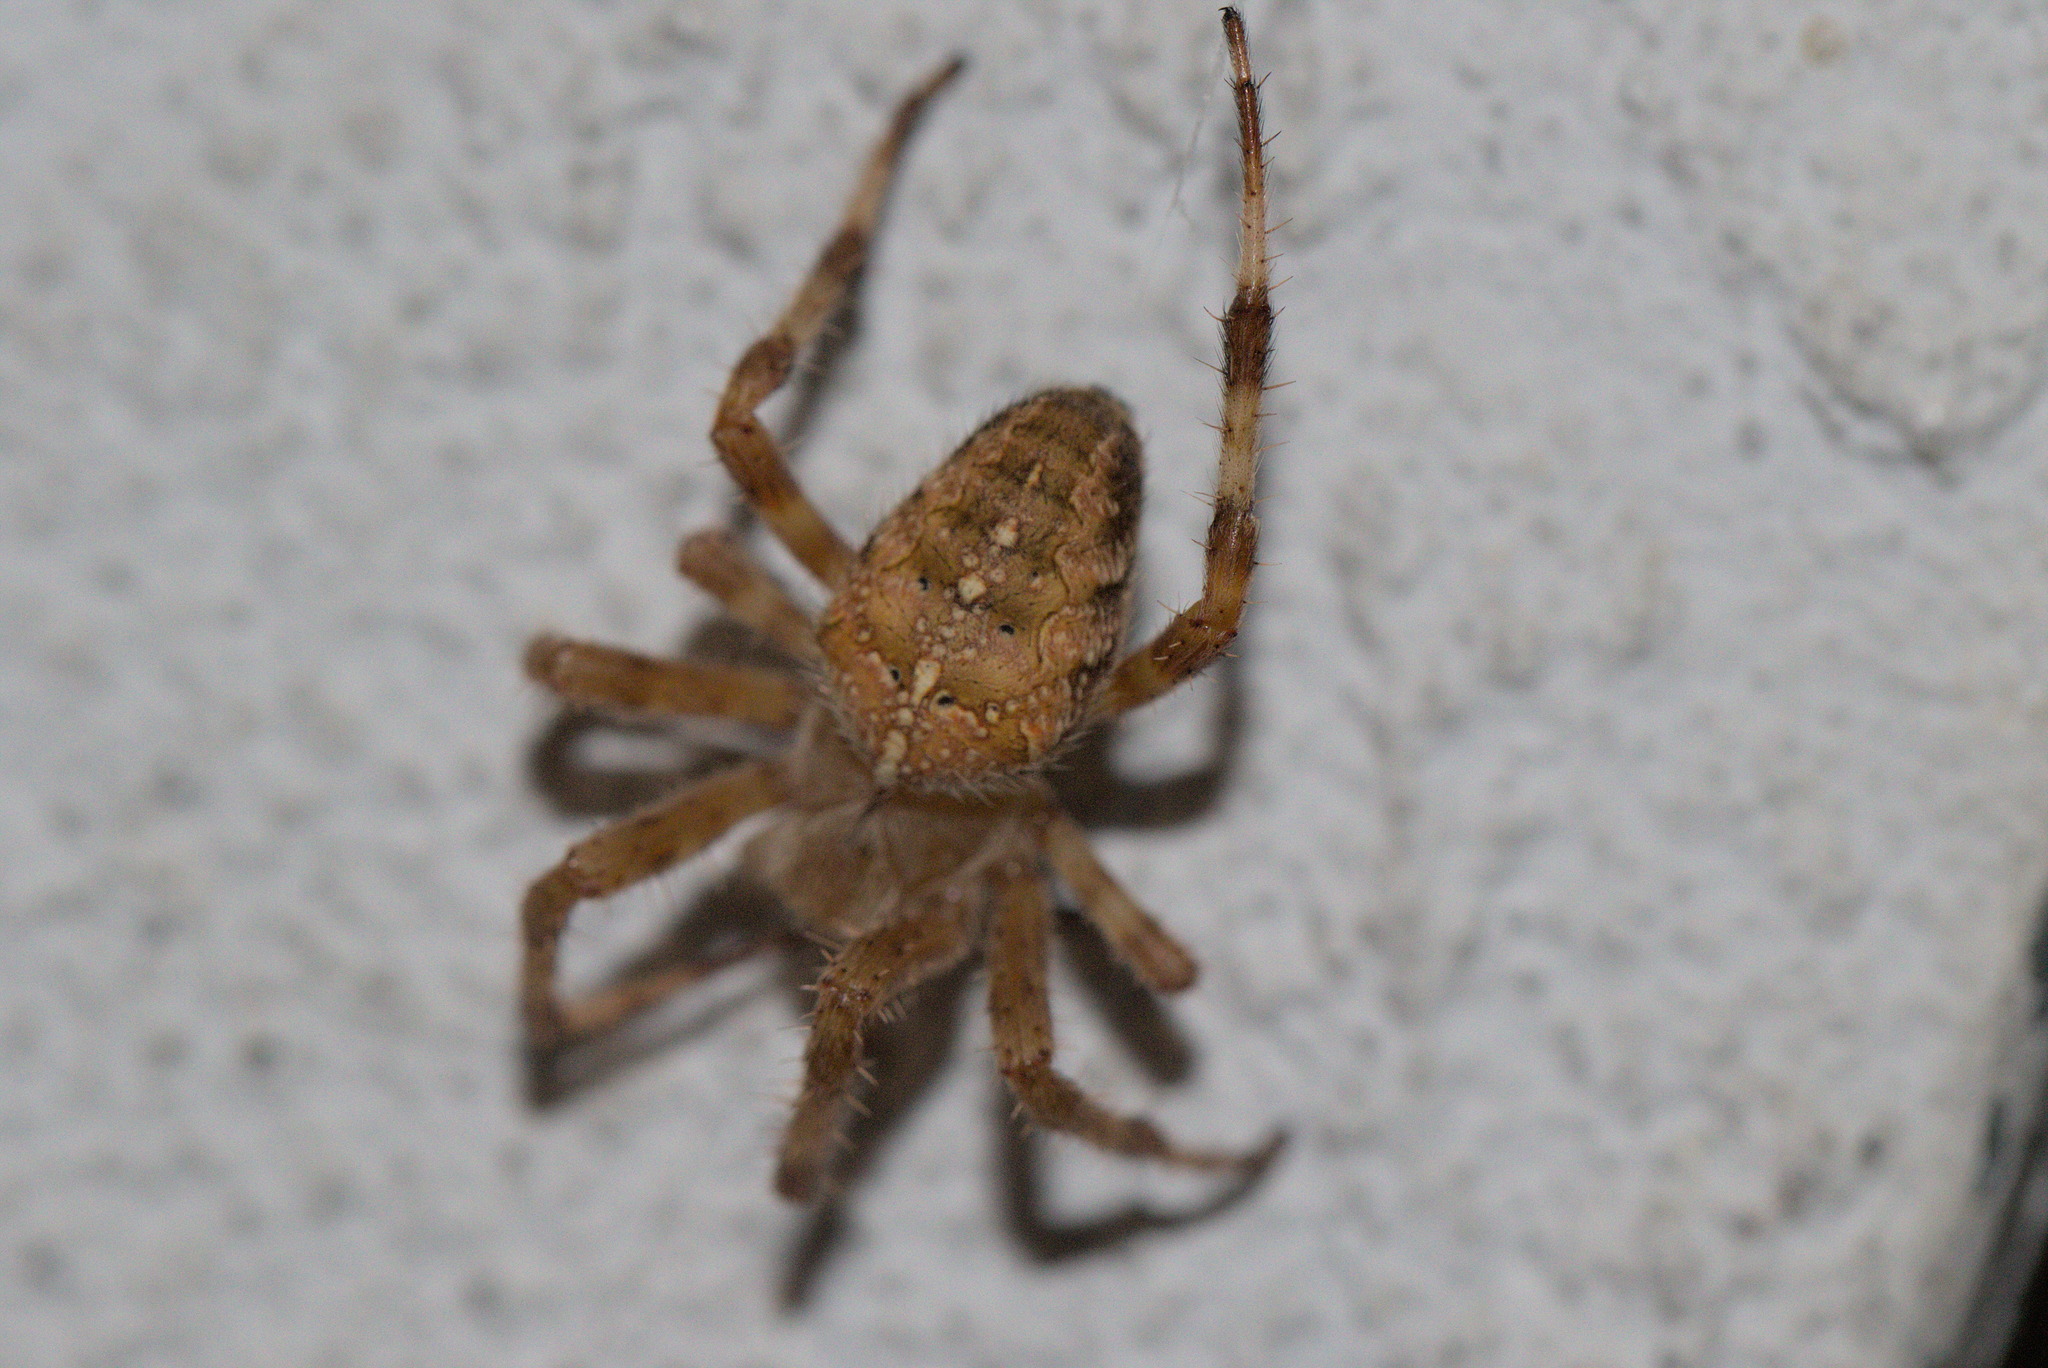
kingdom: Animalia
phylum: Arthropoda
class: Arachnida
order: Araneae
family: Araneidae
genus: Araneus
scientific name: Araneus diadematus
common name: Cross orbweaver
